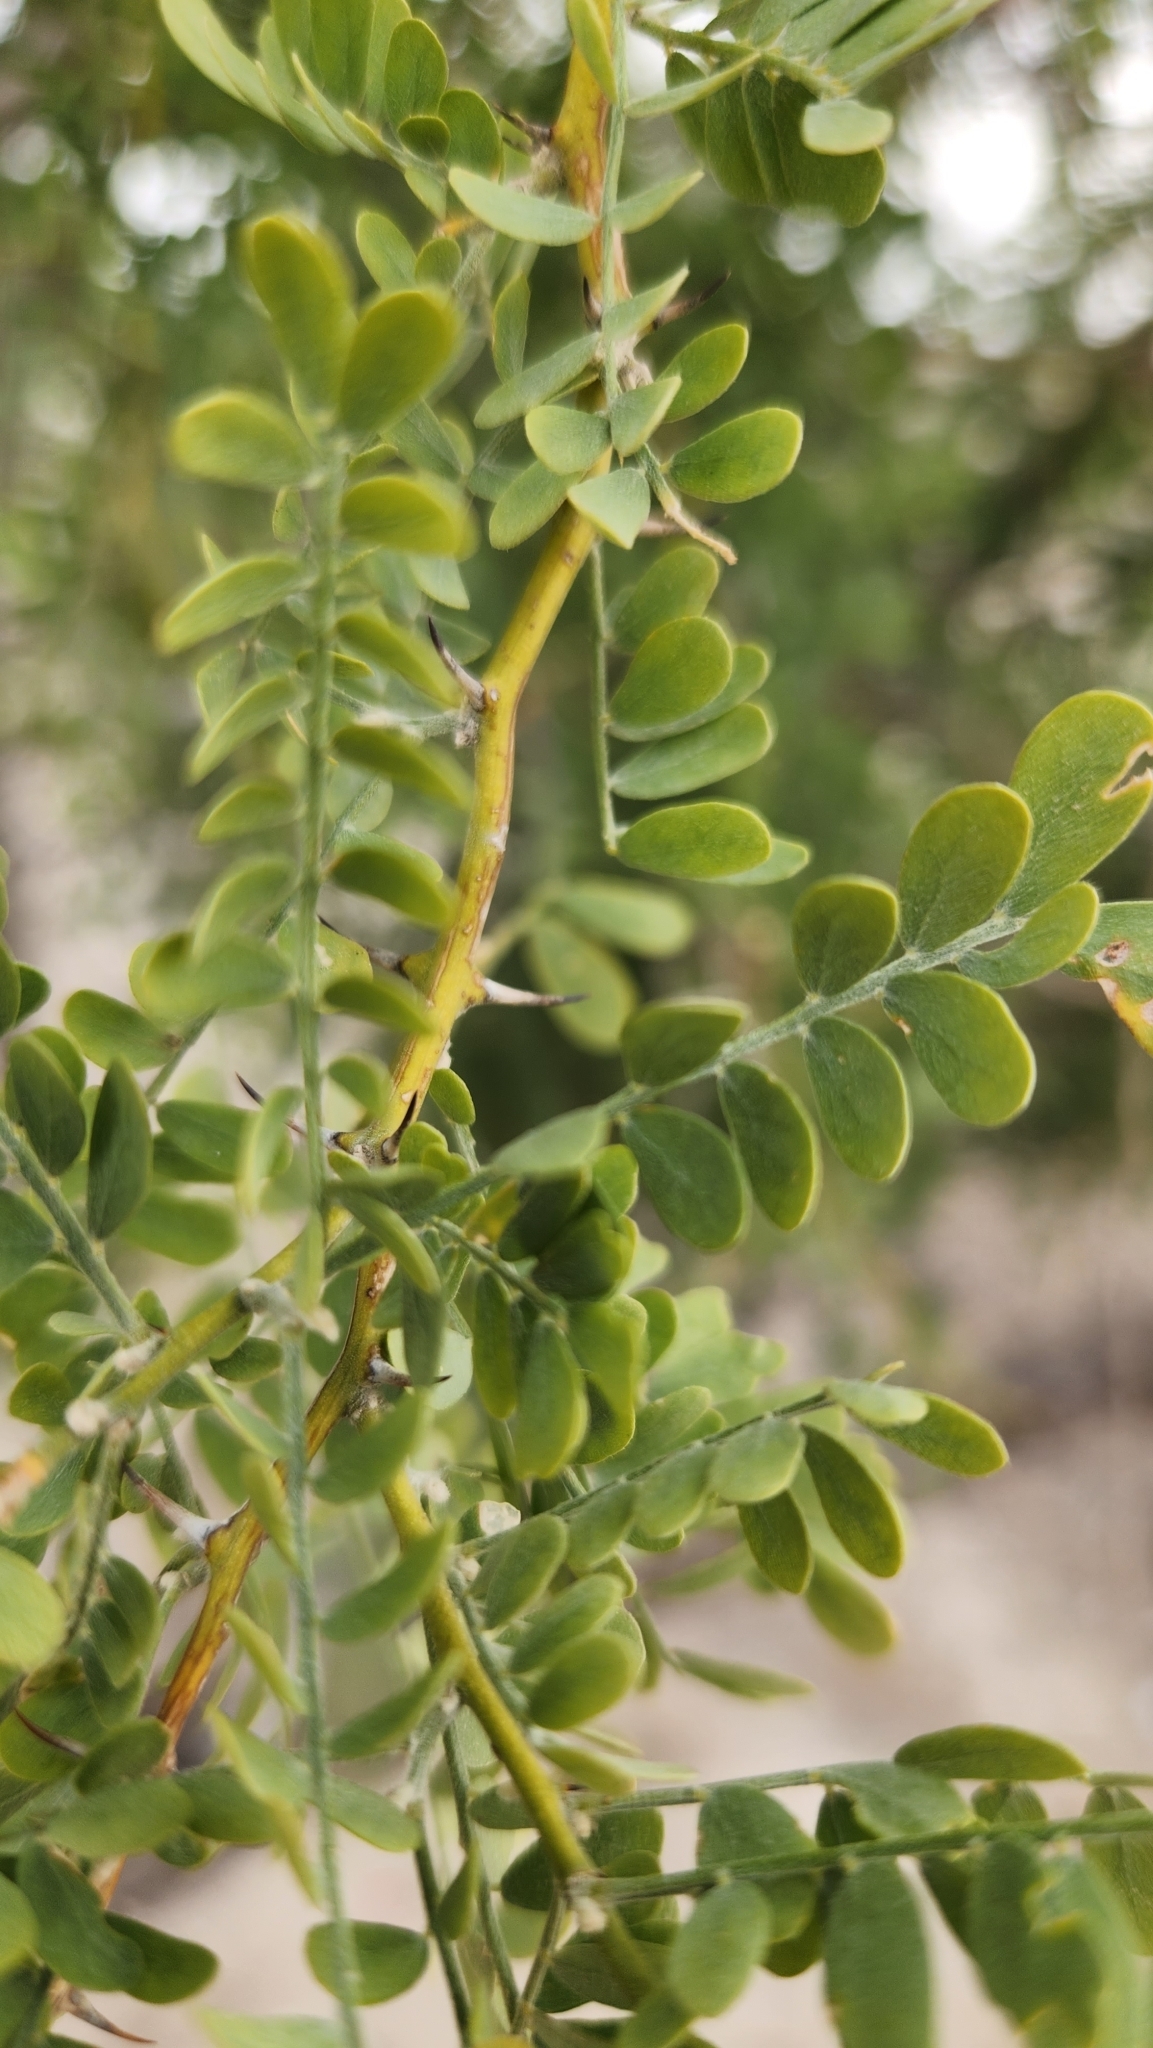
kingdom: Plantae
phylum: Tracheophyta
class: Magnoliopsida
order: Fabales
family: Fabaceae
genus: Senegalia
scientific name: Senegalia greggii
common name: Texas-mimosa
